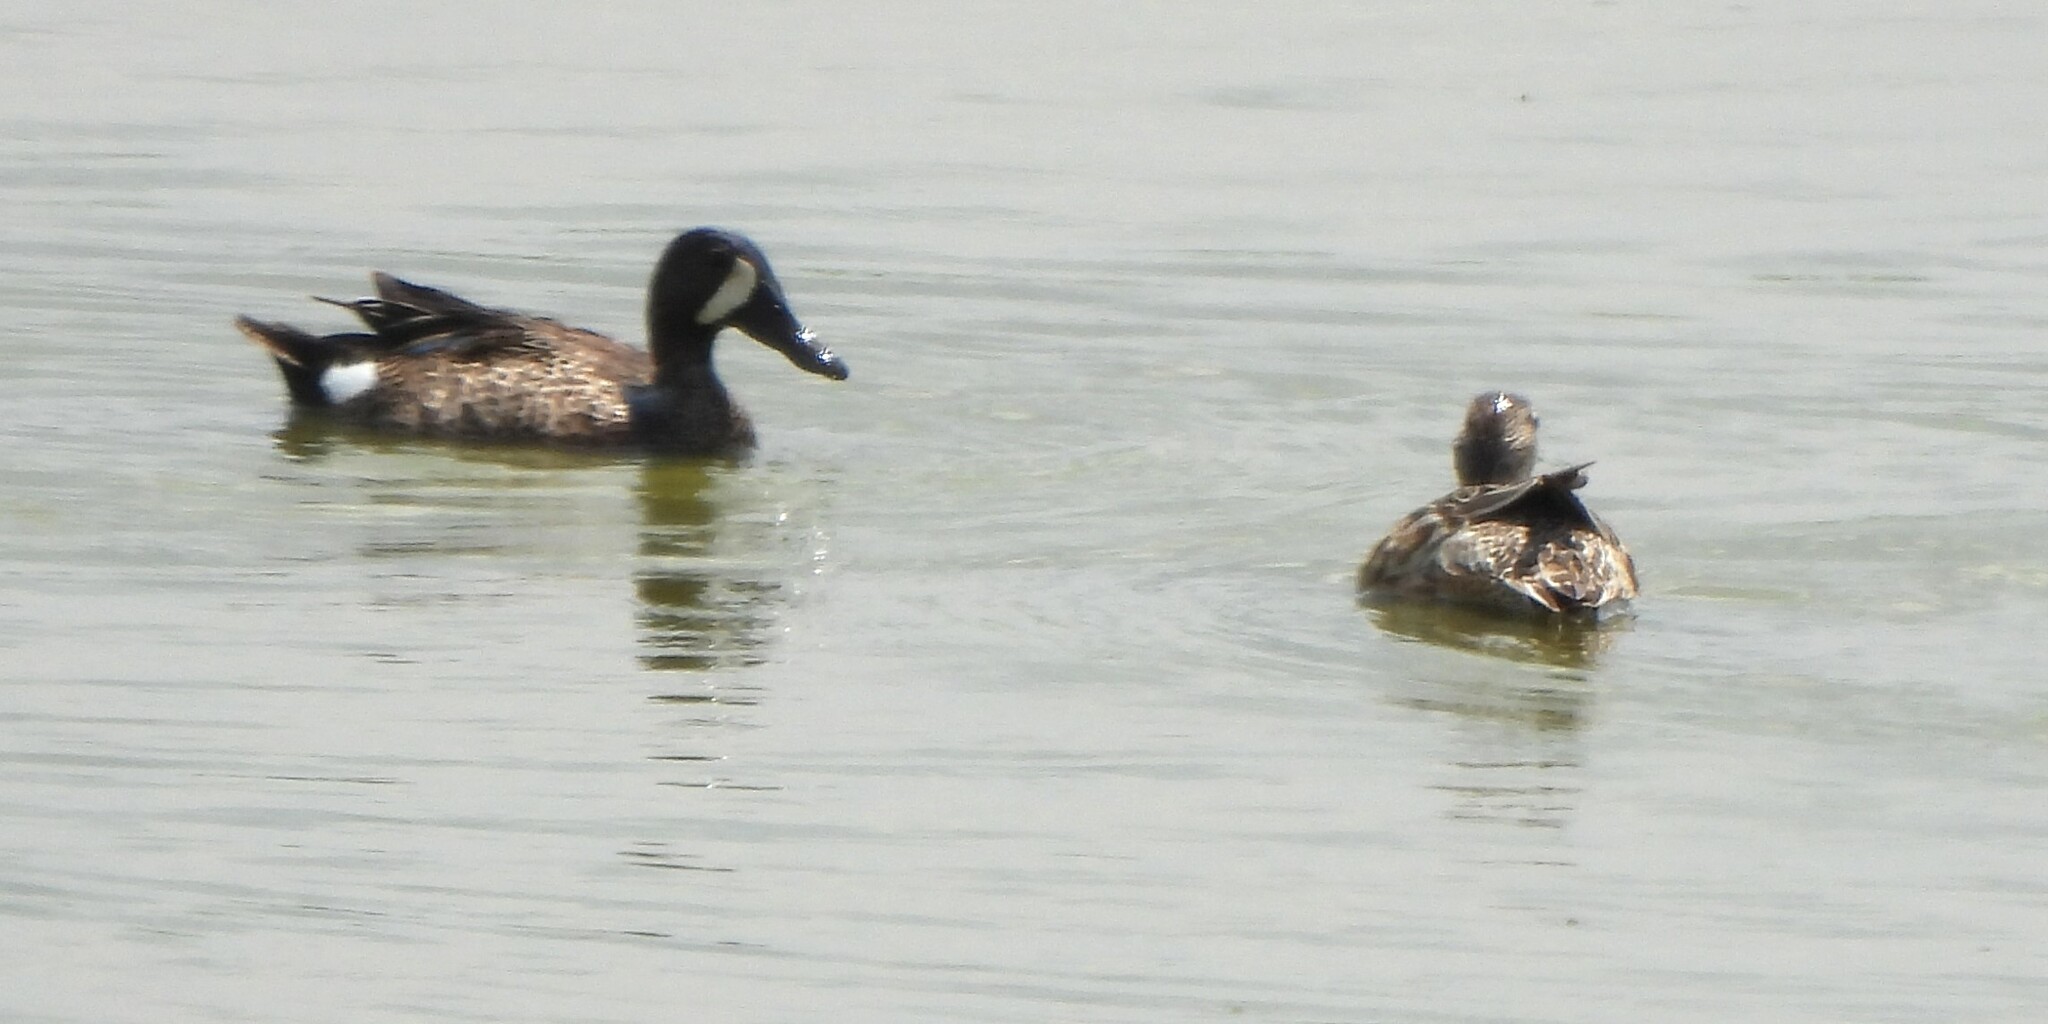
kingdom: Animalia
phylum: Chordata
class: Aves
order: Anseriformes
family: Anatidae
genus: Spatula
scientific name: Spatula discors
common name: Blue-winged teal
